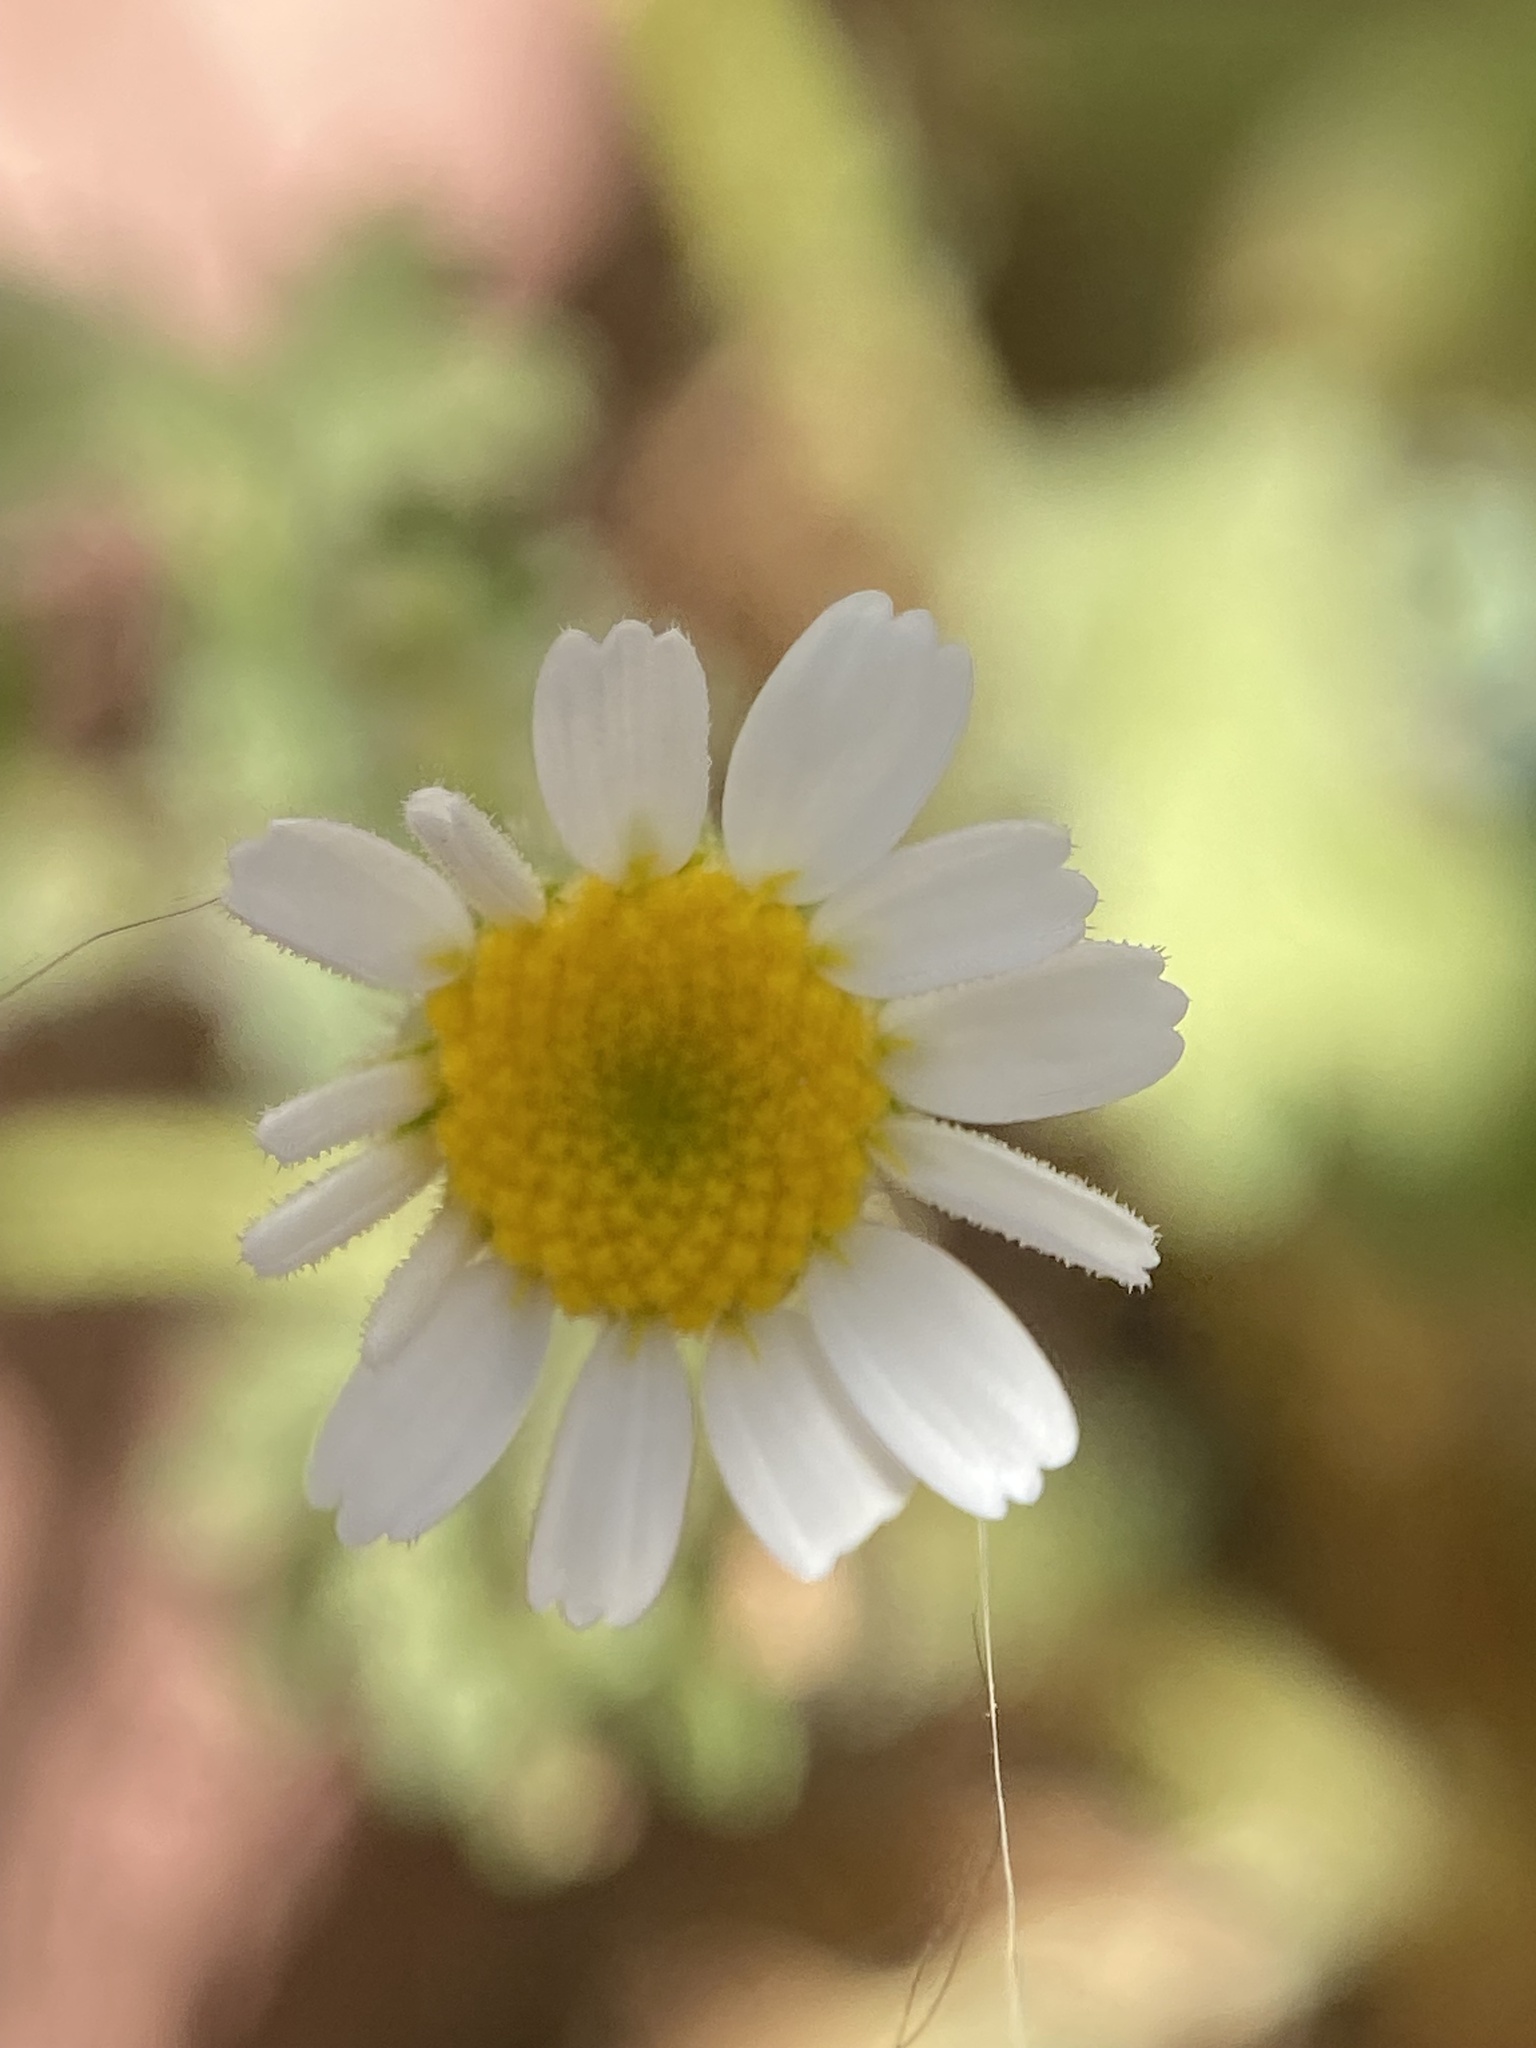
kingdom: Plantae
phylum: Tracheophyta
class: Magnoliopsida
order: Asterales
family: Asteraceae
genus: Perityle
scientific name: Perityle crassifolia
